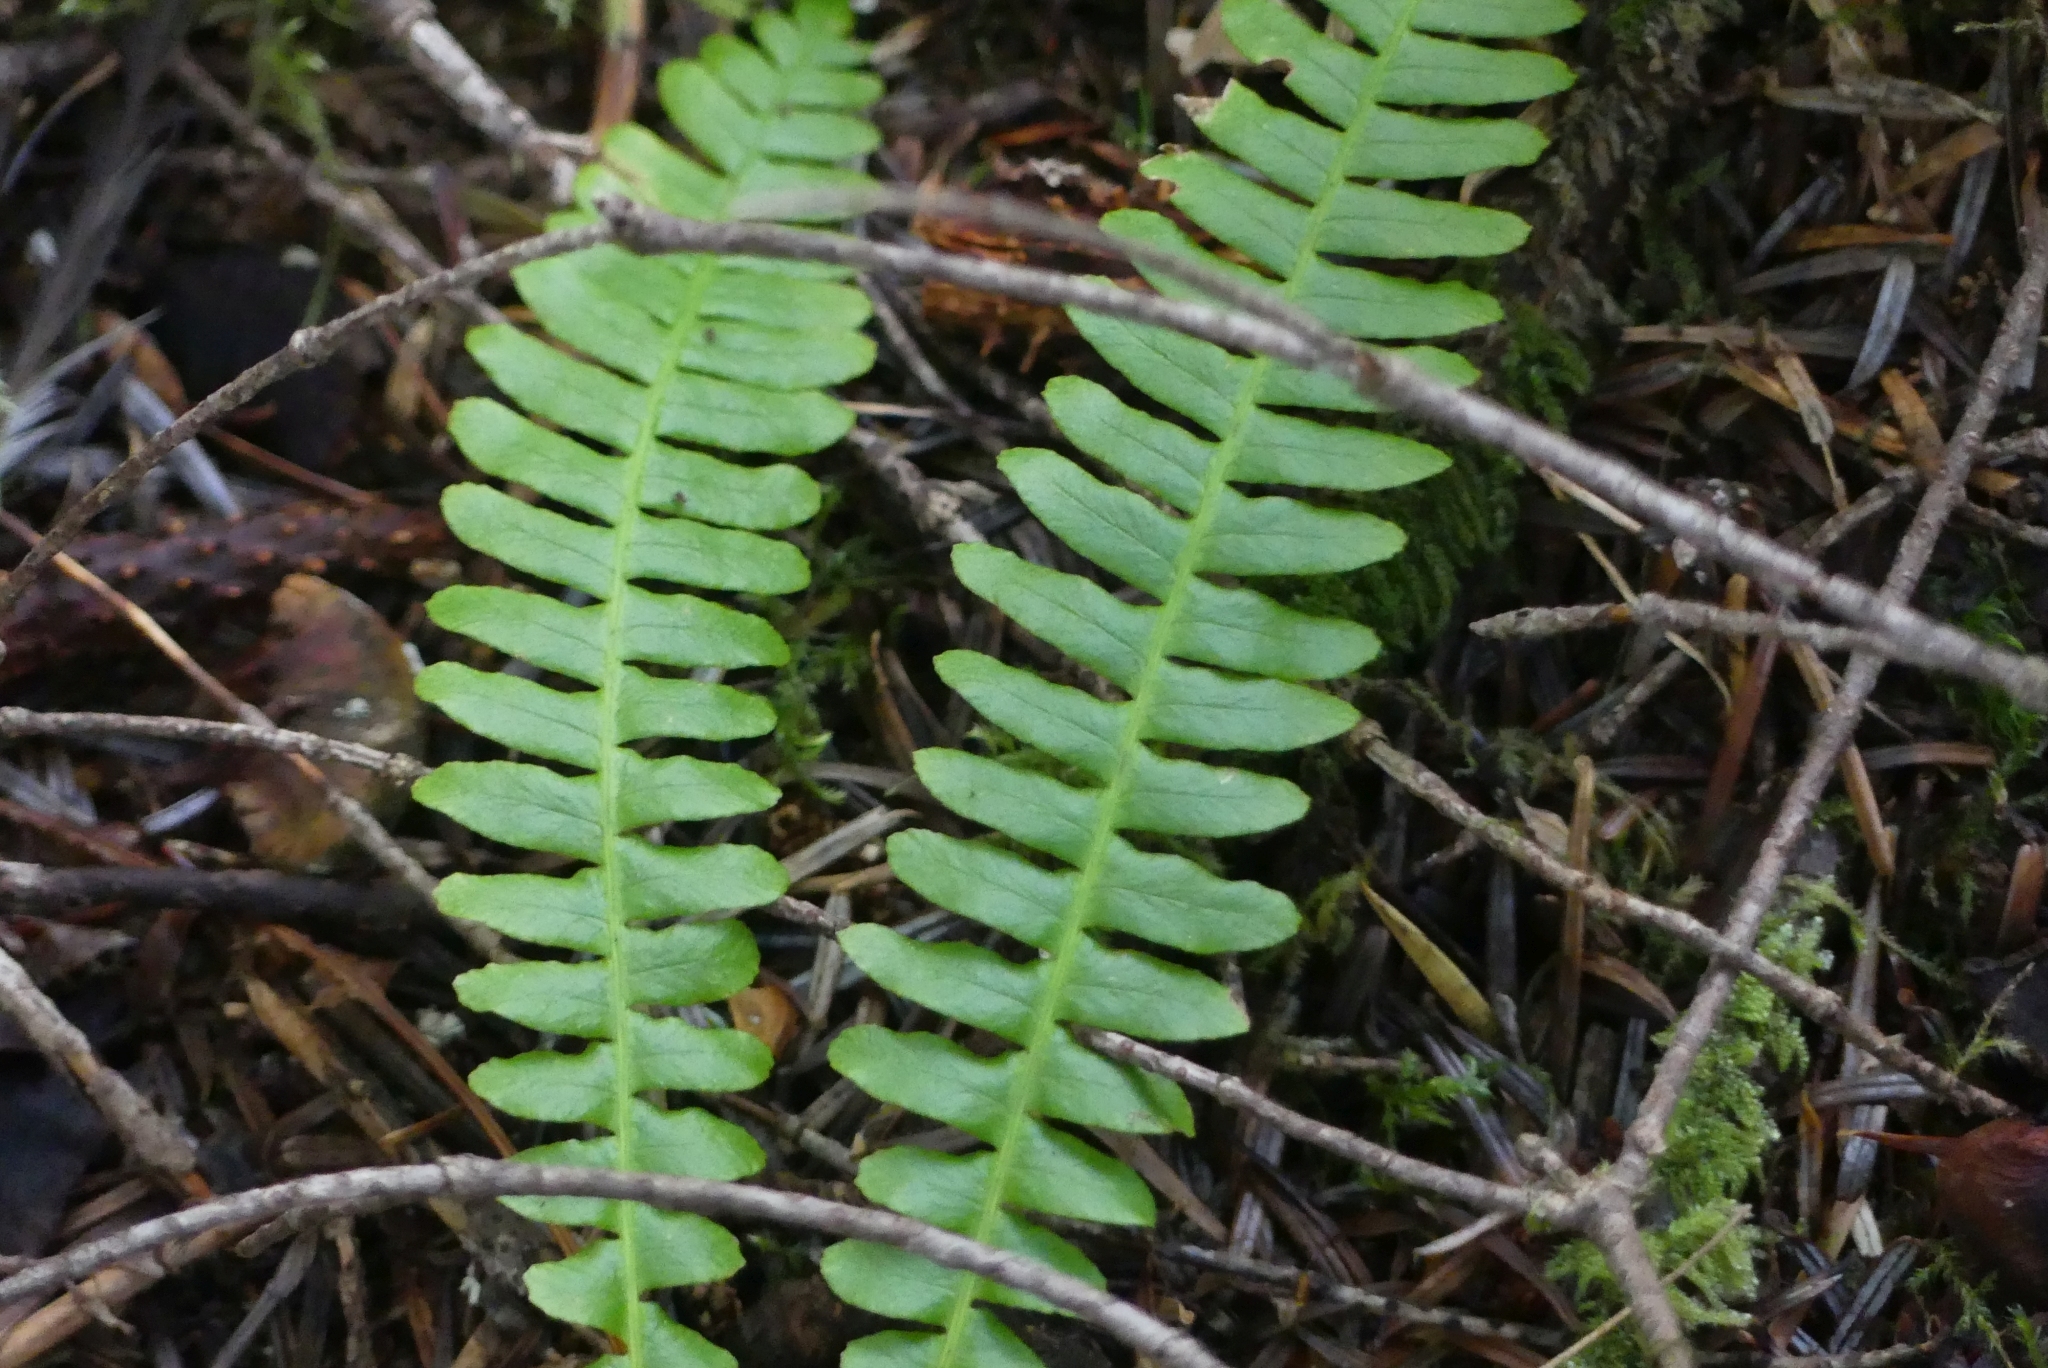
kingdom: Plantae
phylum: Tracheophyta
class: Polypodiopsida
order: Polypodiales
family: Blechnaceae
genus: Struthiopteris
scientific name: Struthiopteris spicant
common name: Deer fern
